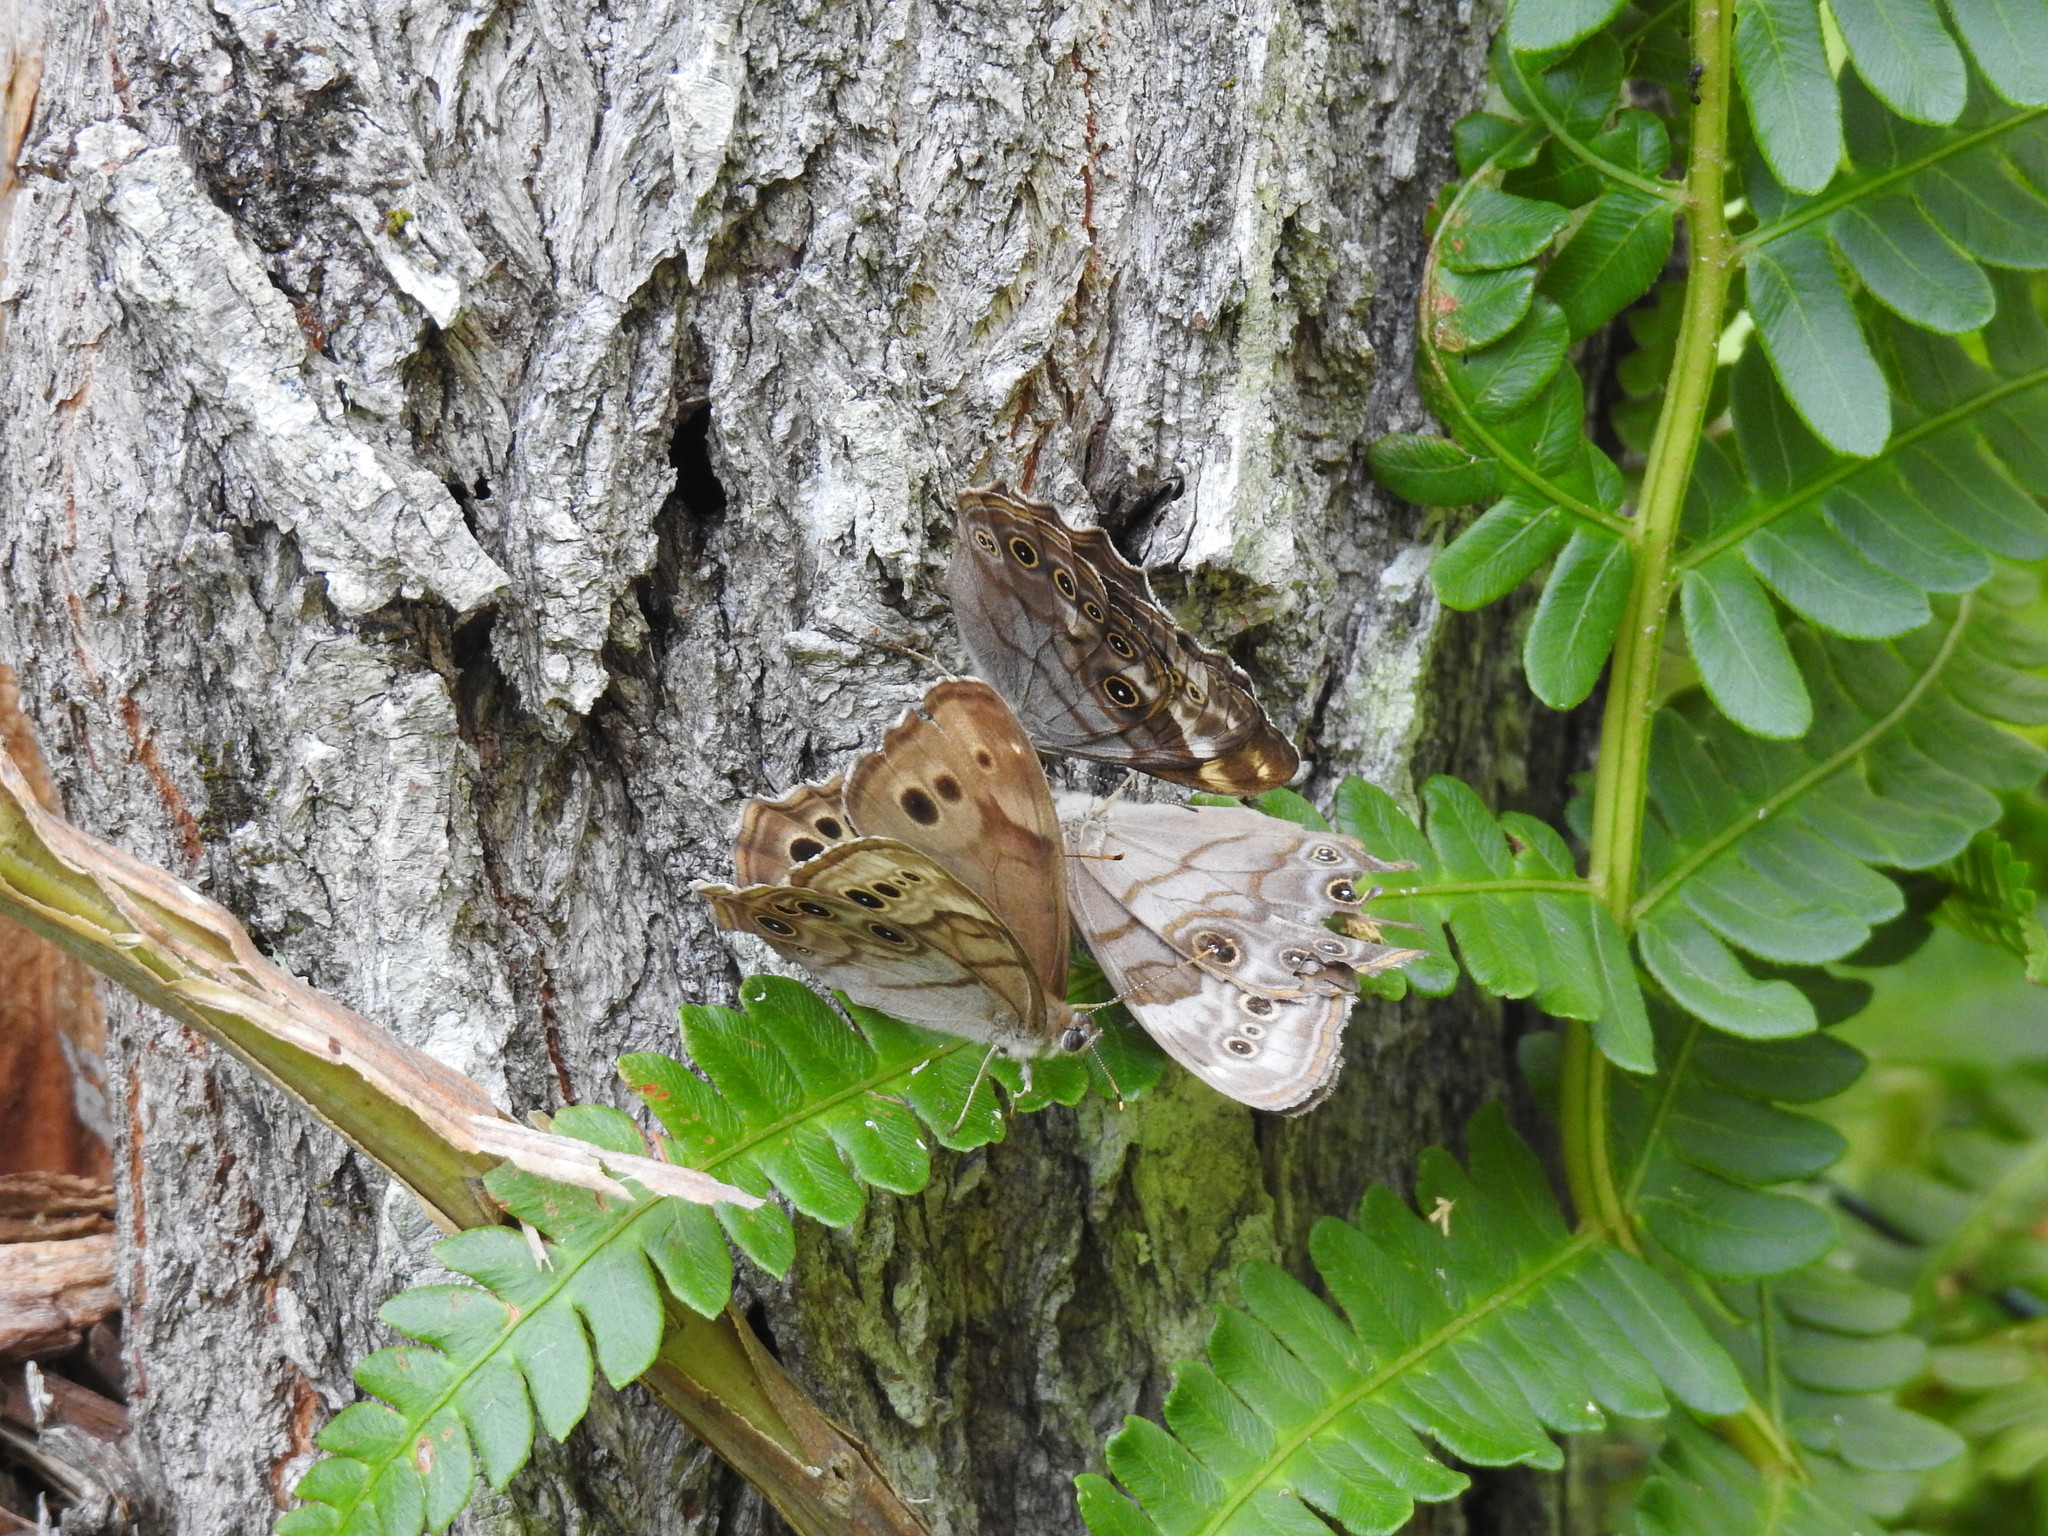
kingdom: Animalia
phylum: Arthropoda
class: Insecta
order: Lepidoptera
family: Nymphalidae
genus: Lethe
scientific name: Lethe anthedon
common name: Northern pearly-eye
